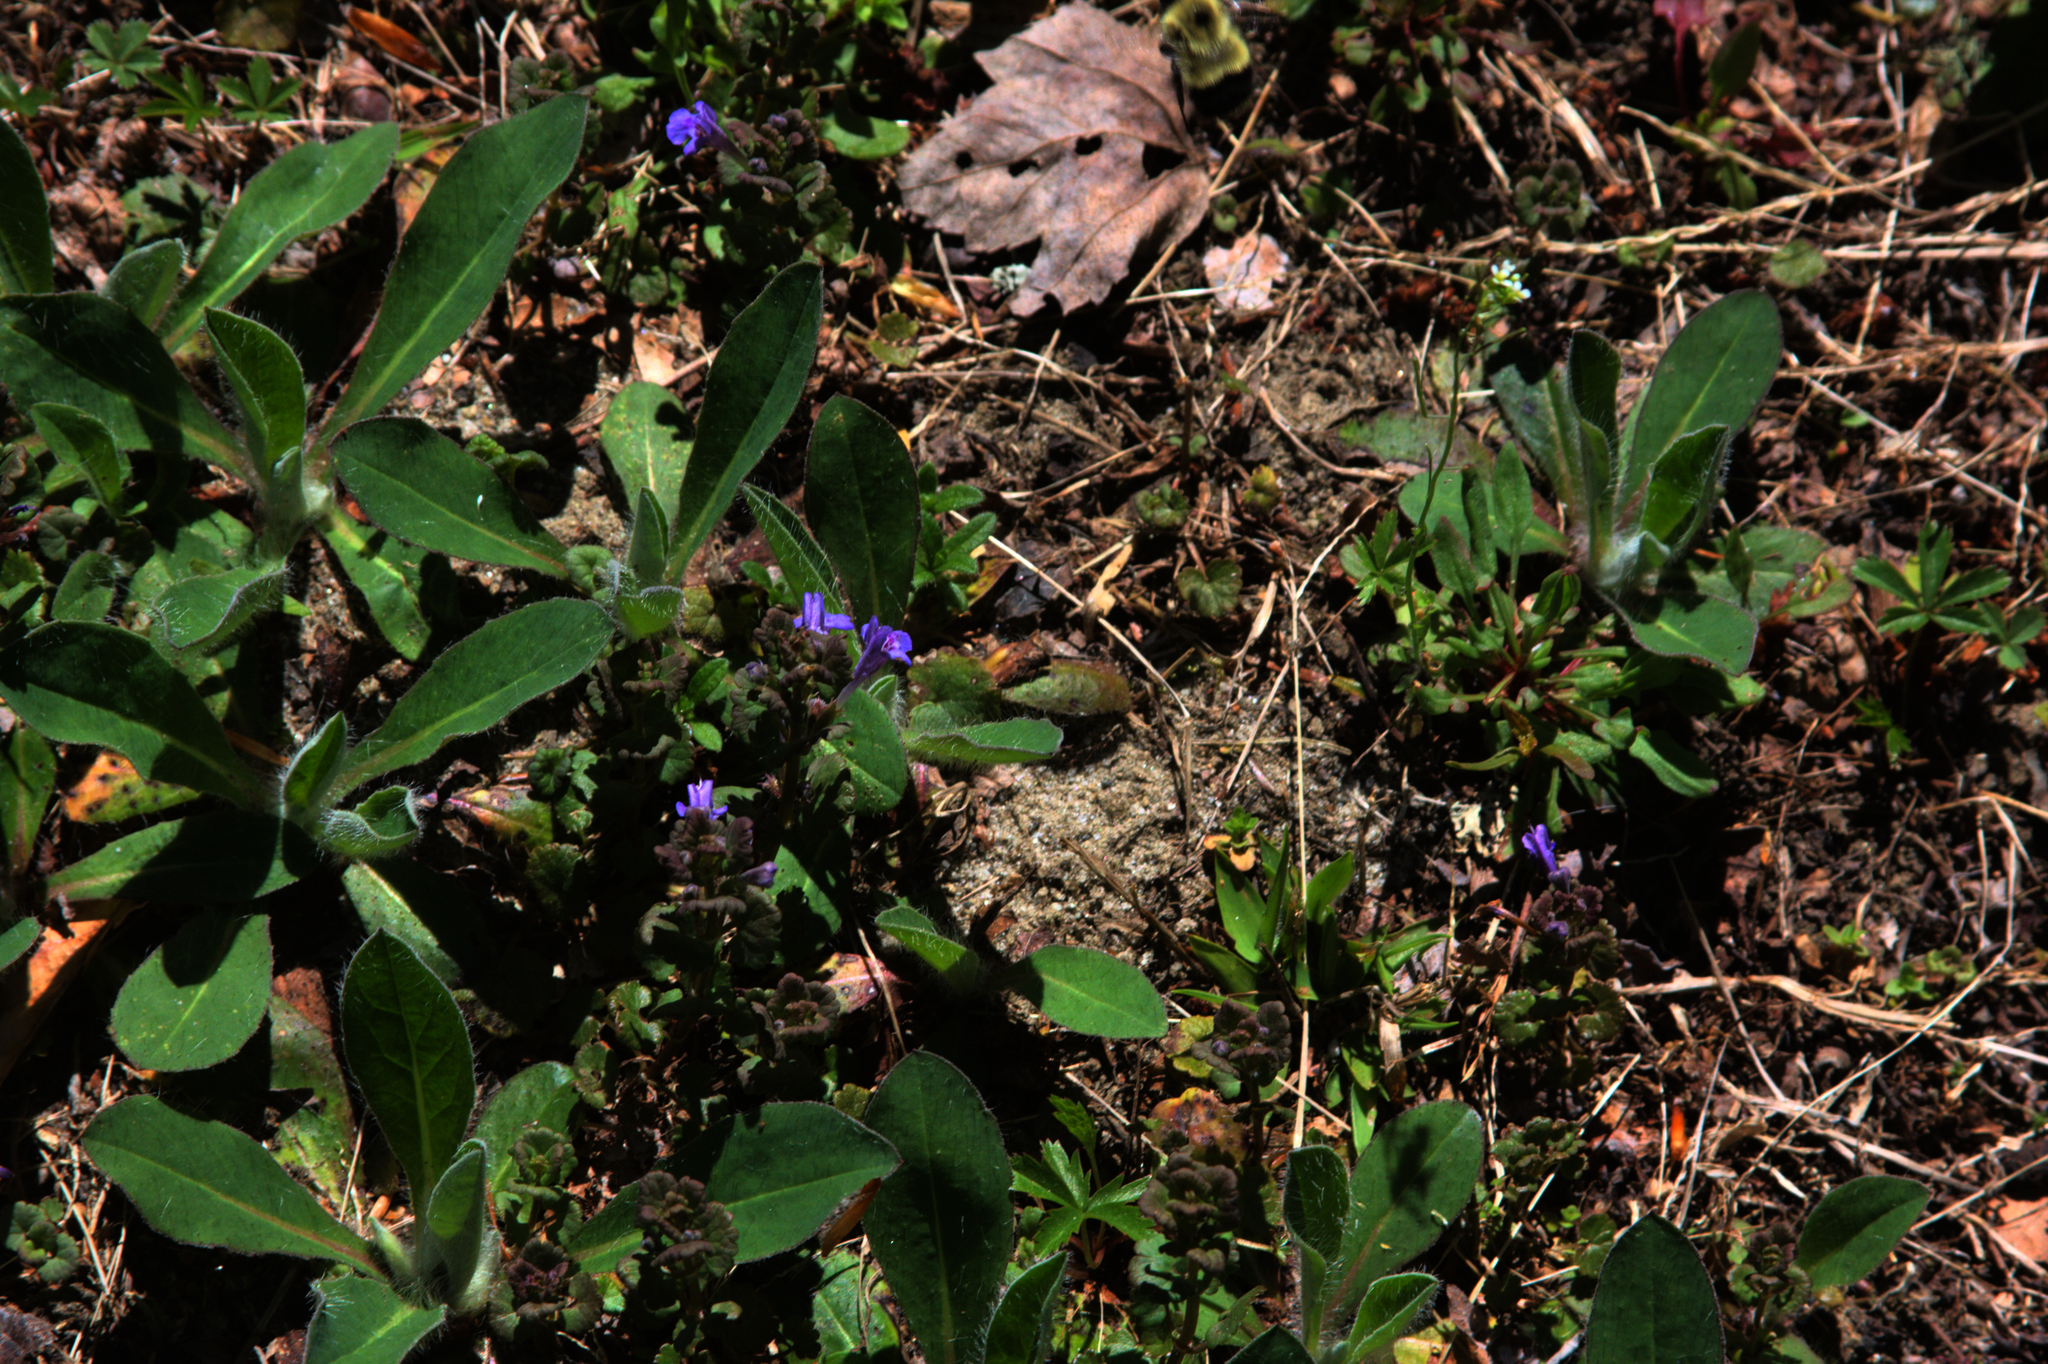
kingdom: Plantae
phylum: Tracheophyta
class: Magnoliopsida
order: Lamiales
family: Lamiaceae
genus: Glechoma
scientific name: Glechoma hederacea
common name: Ground ivy
